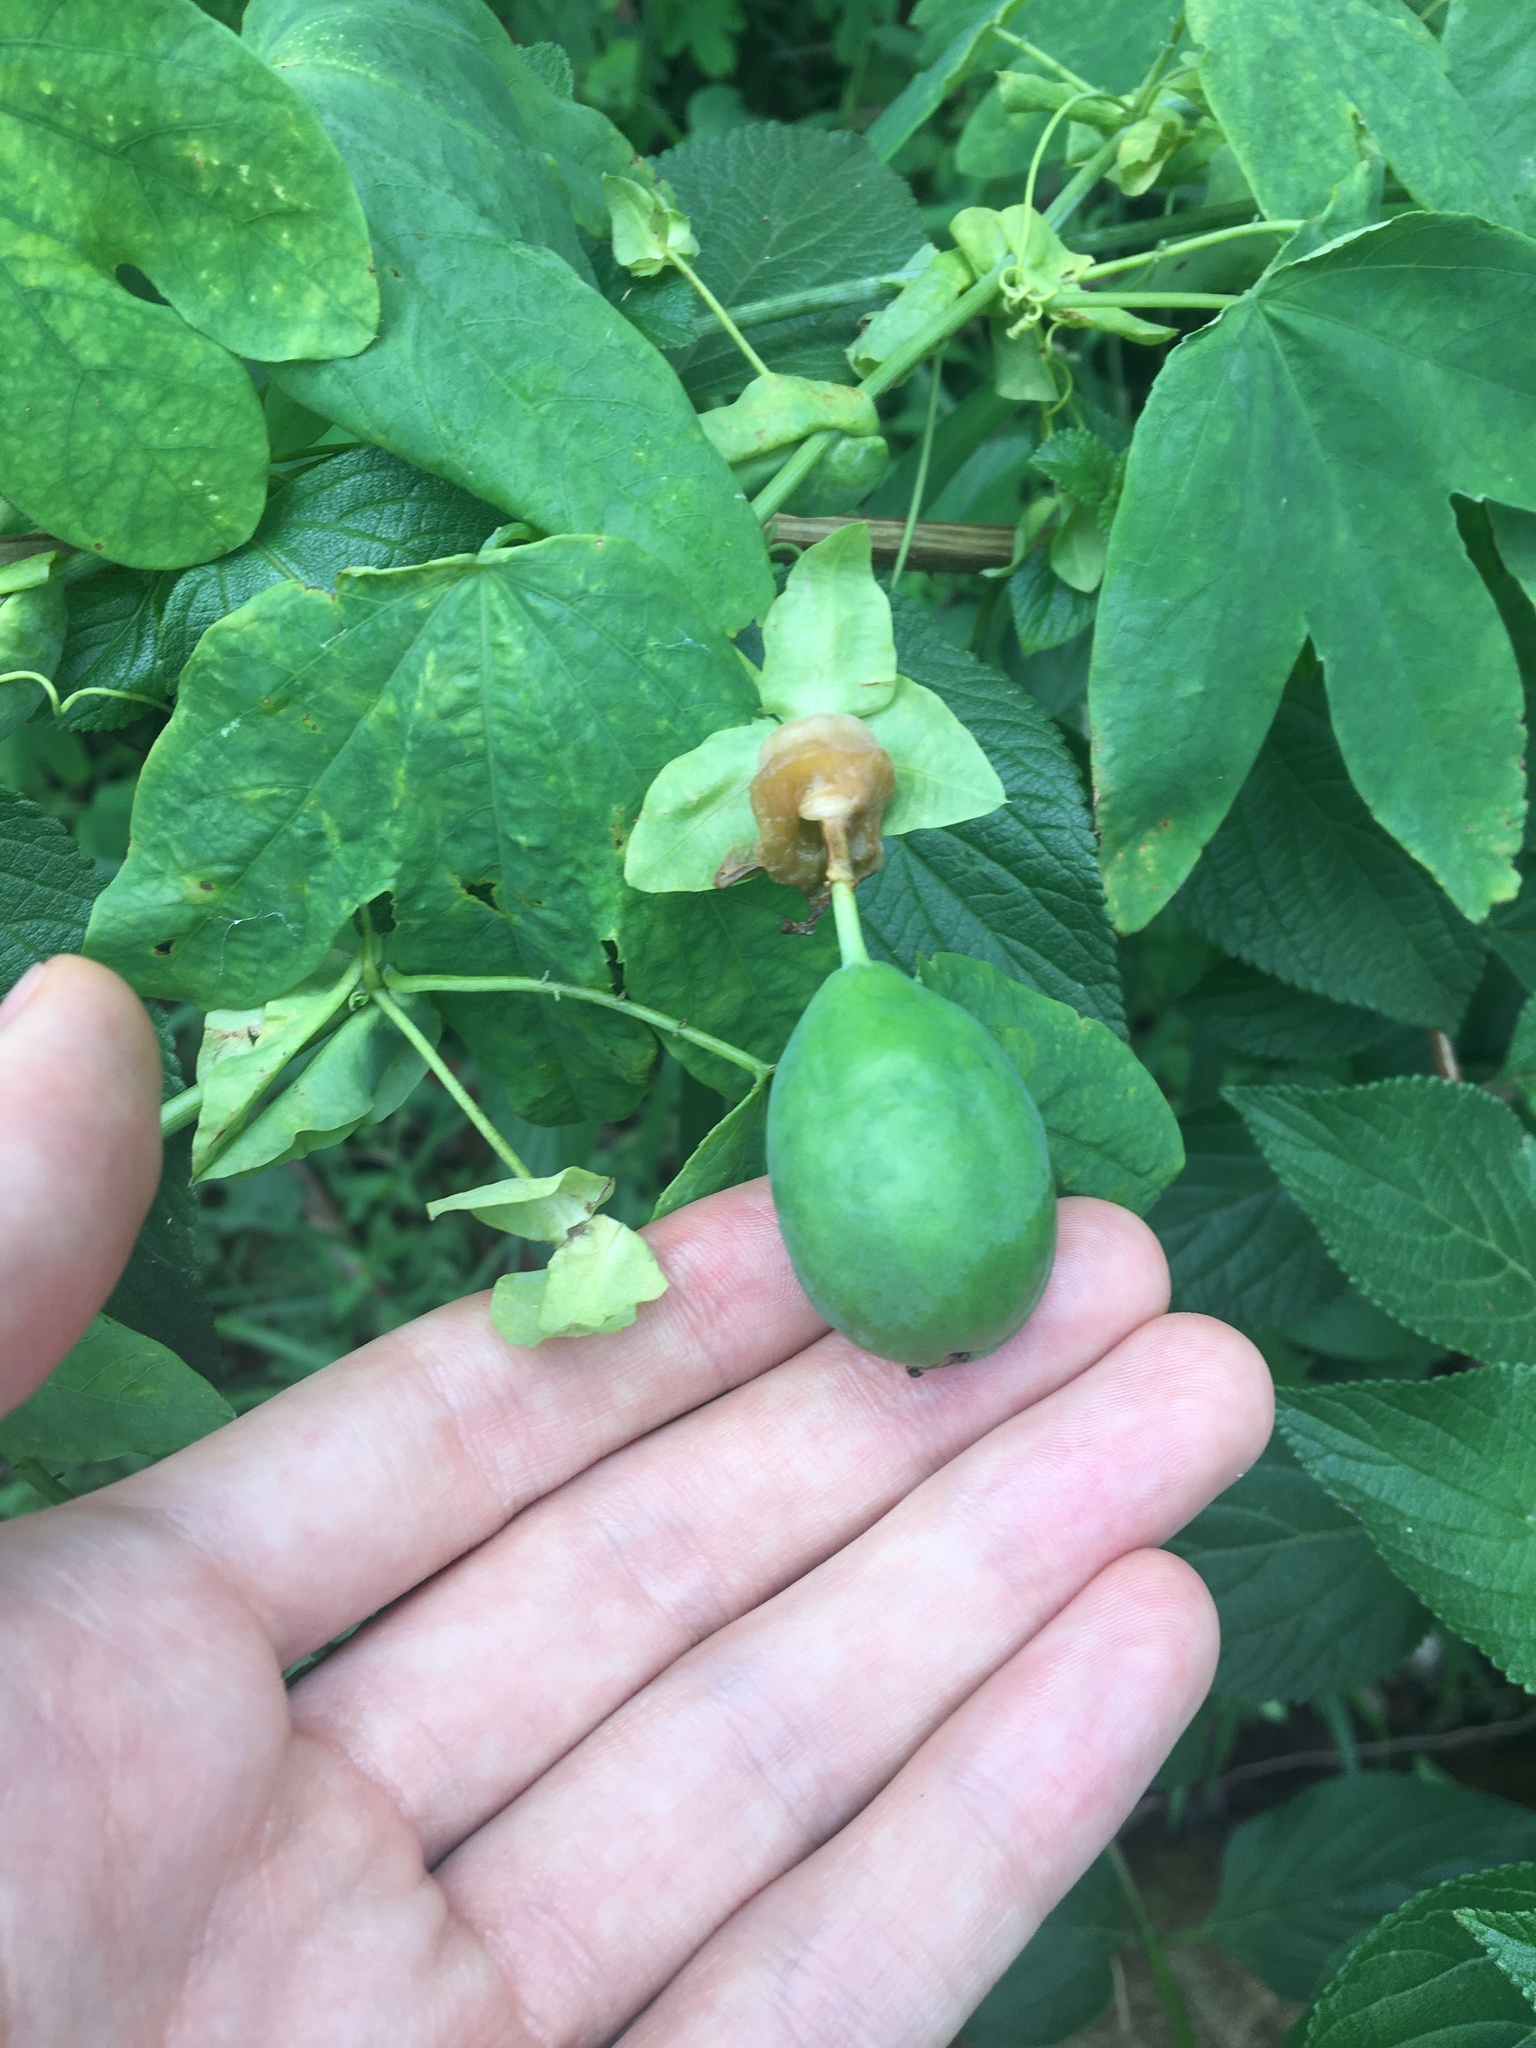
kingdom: Plantae
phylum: Tracheophyta
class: Magnoliopsida
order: Malpighiales
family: Passifloraceae
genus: Passiflora
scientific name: Passiflora subpeltata
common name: White passionflower
